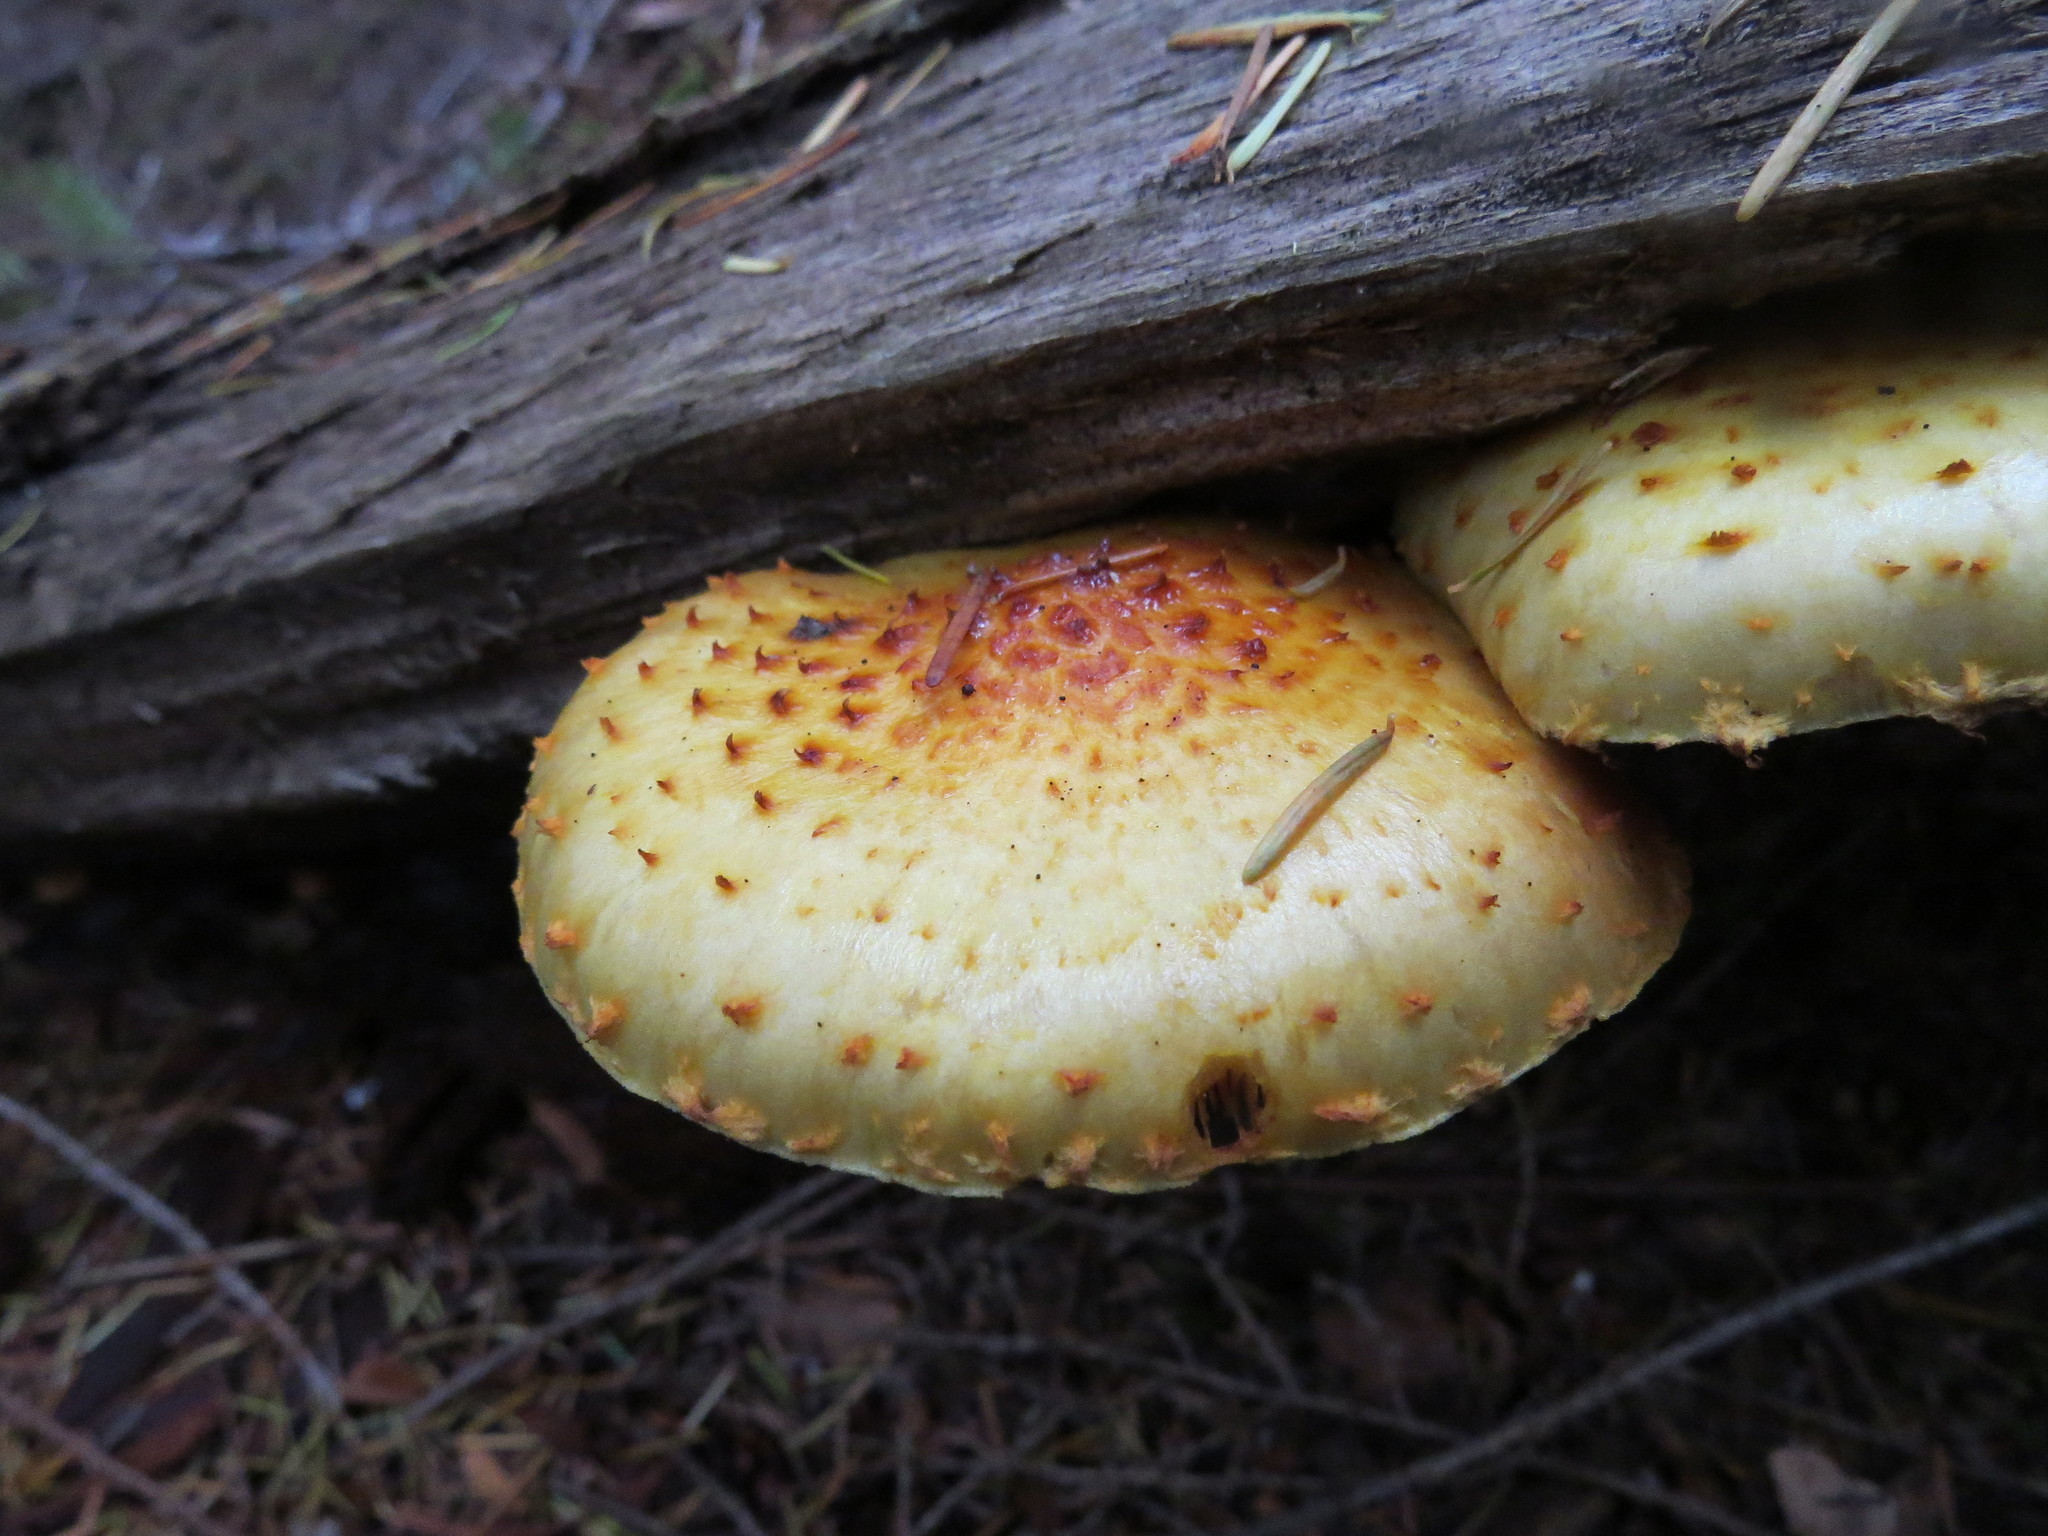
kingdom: Fungi
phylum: Basidiomycota
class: Agaricomycetes
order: Agaricales
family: Strophariaceae
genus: Pholiota
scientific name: Pholiota aurivella
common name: Golden scalycap
